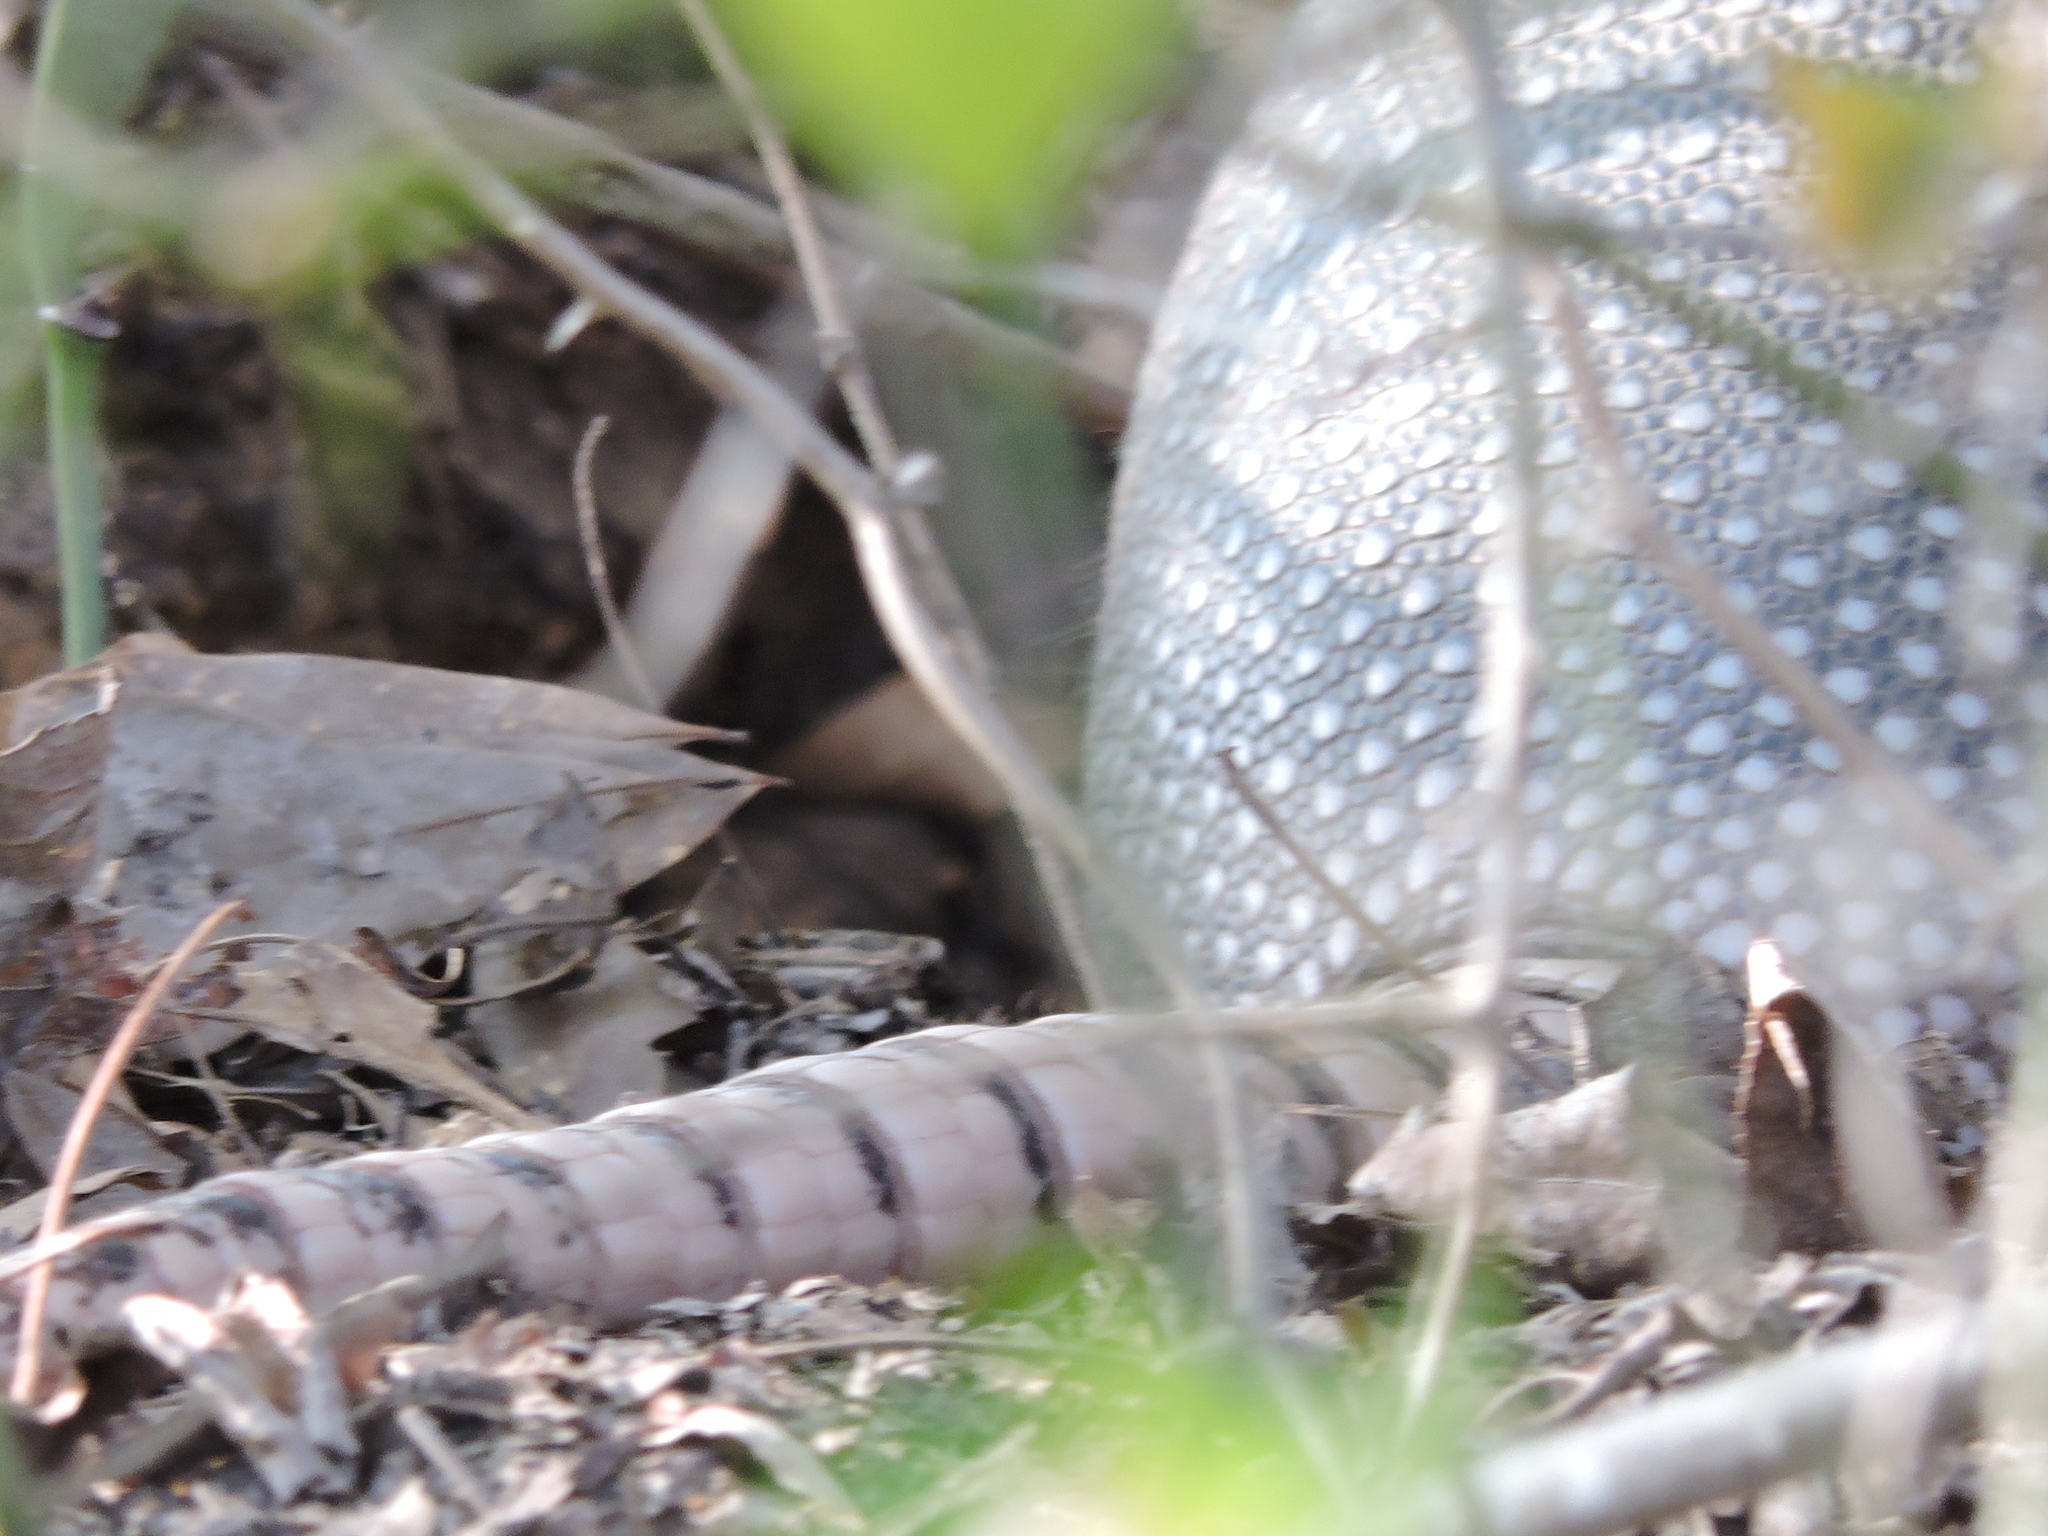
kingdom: Animalia
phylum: Chordata
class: Mammalia
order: Cingulata
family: Dasypodidae
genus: Dasypus
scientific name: Dasypus novemcinctus
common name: Nine-banded armadillo
